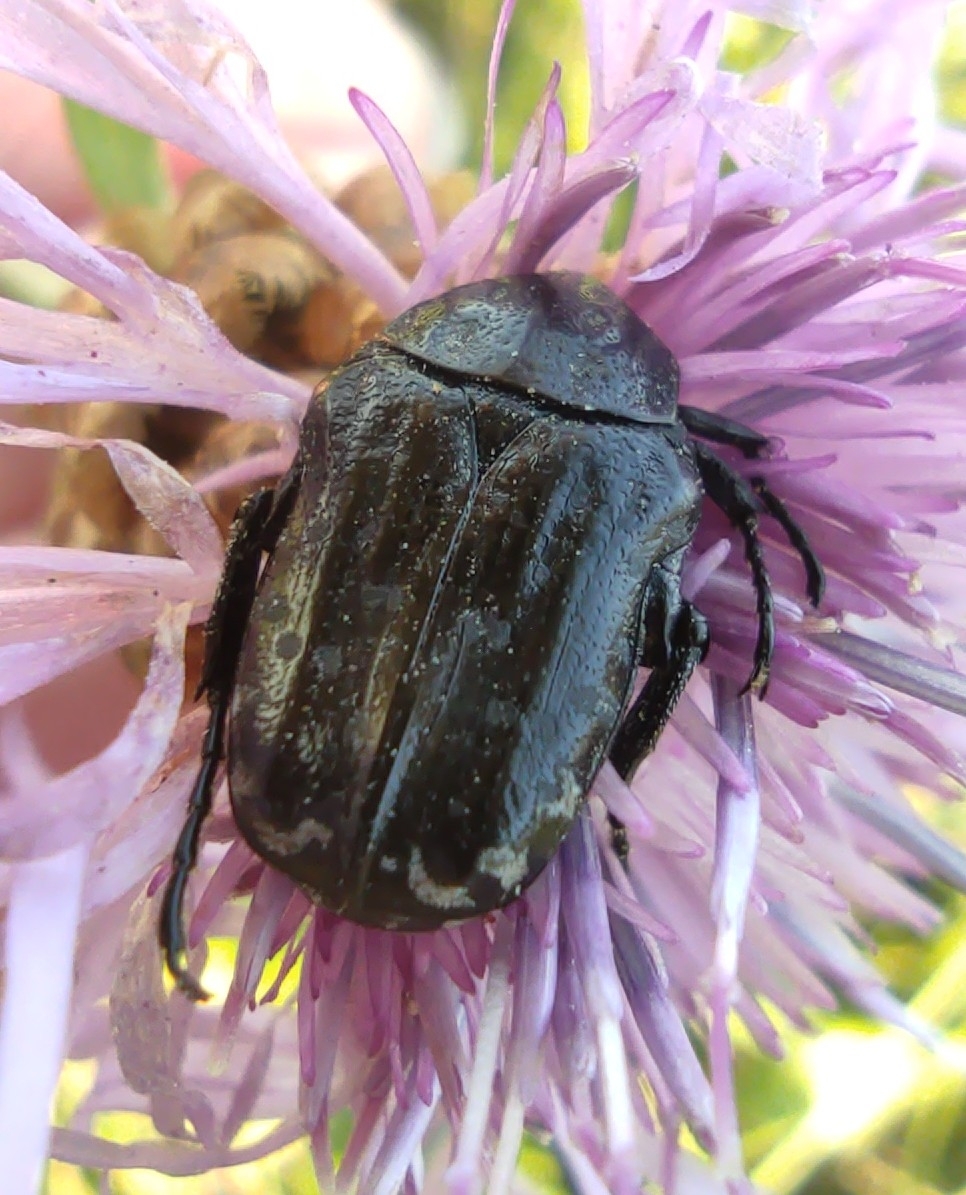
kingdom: Animalia
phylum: Arthropoda
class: Insecta
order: Coleoptera
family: Scarabaeidae
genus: Oxythyrea
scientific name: Oxythyrea funesta
